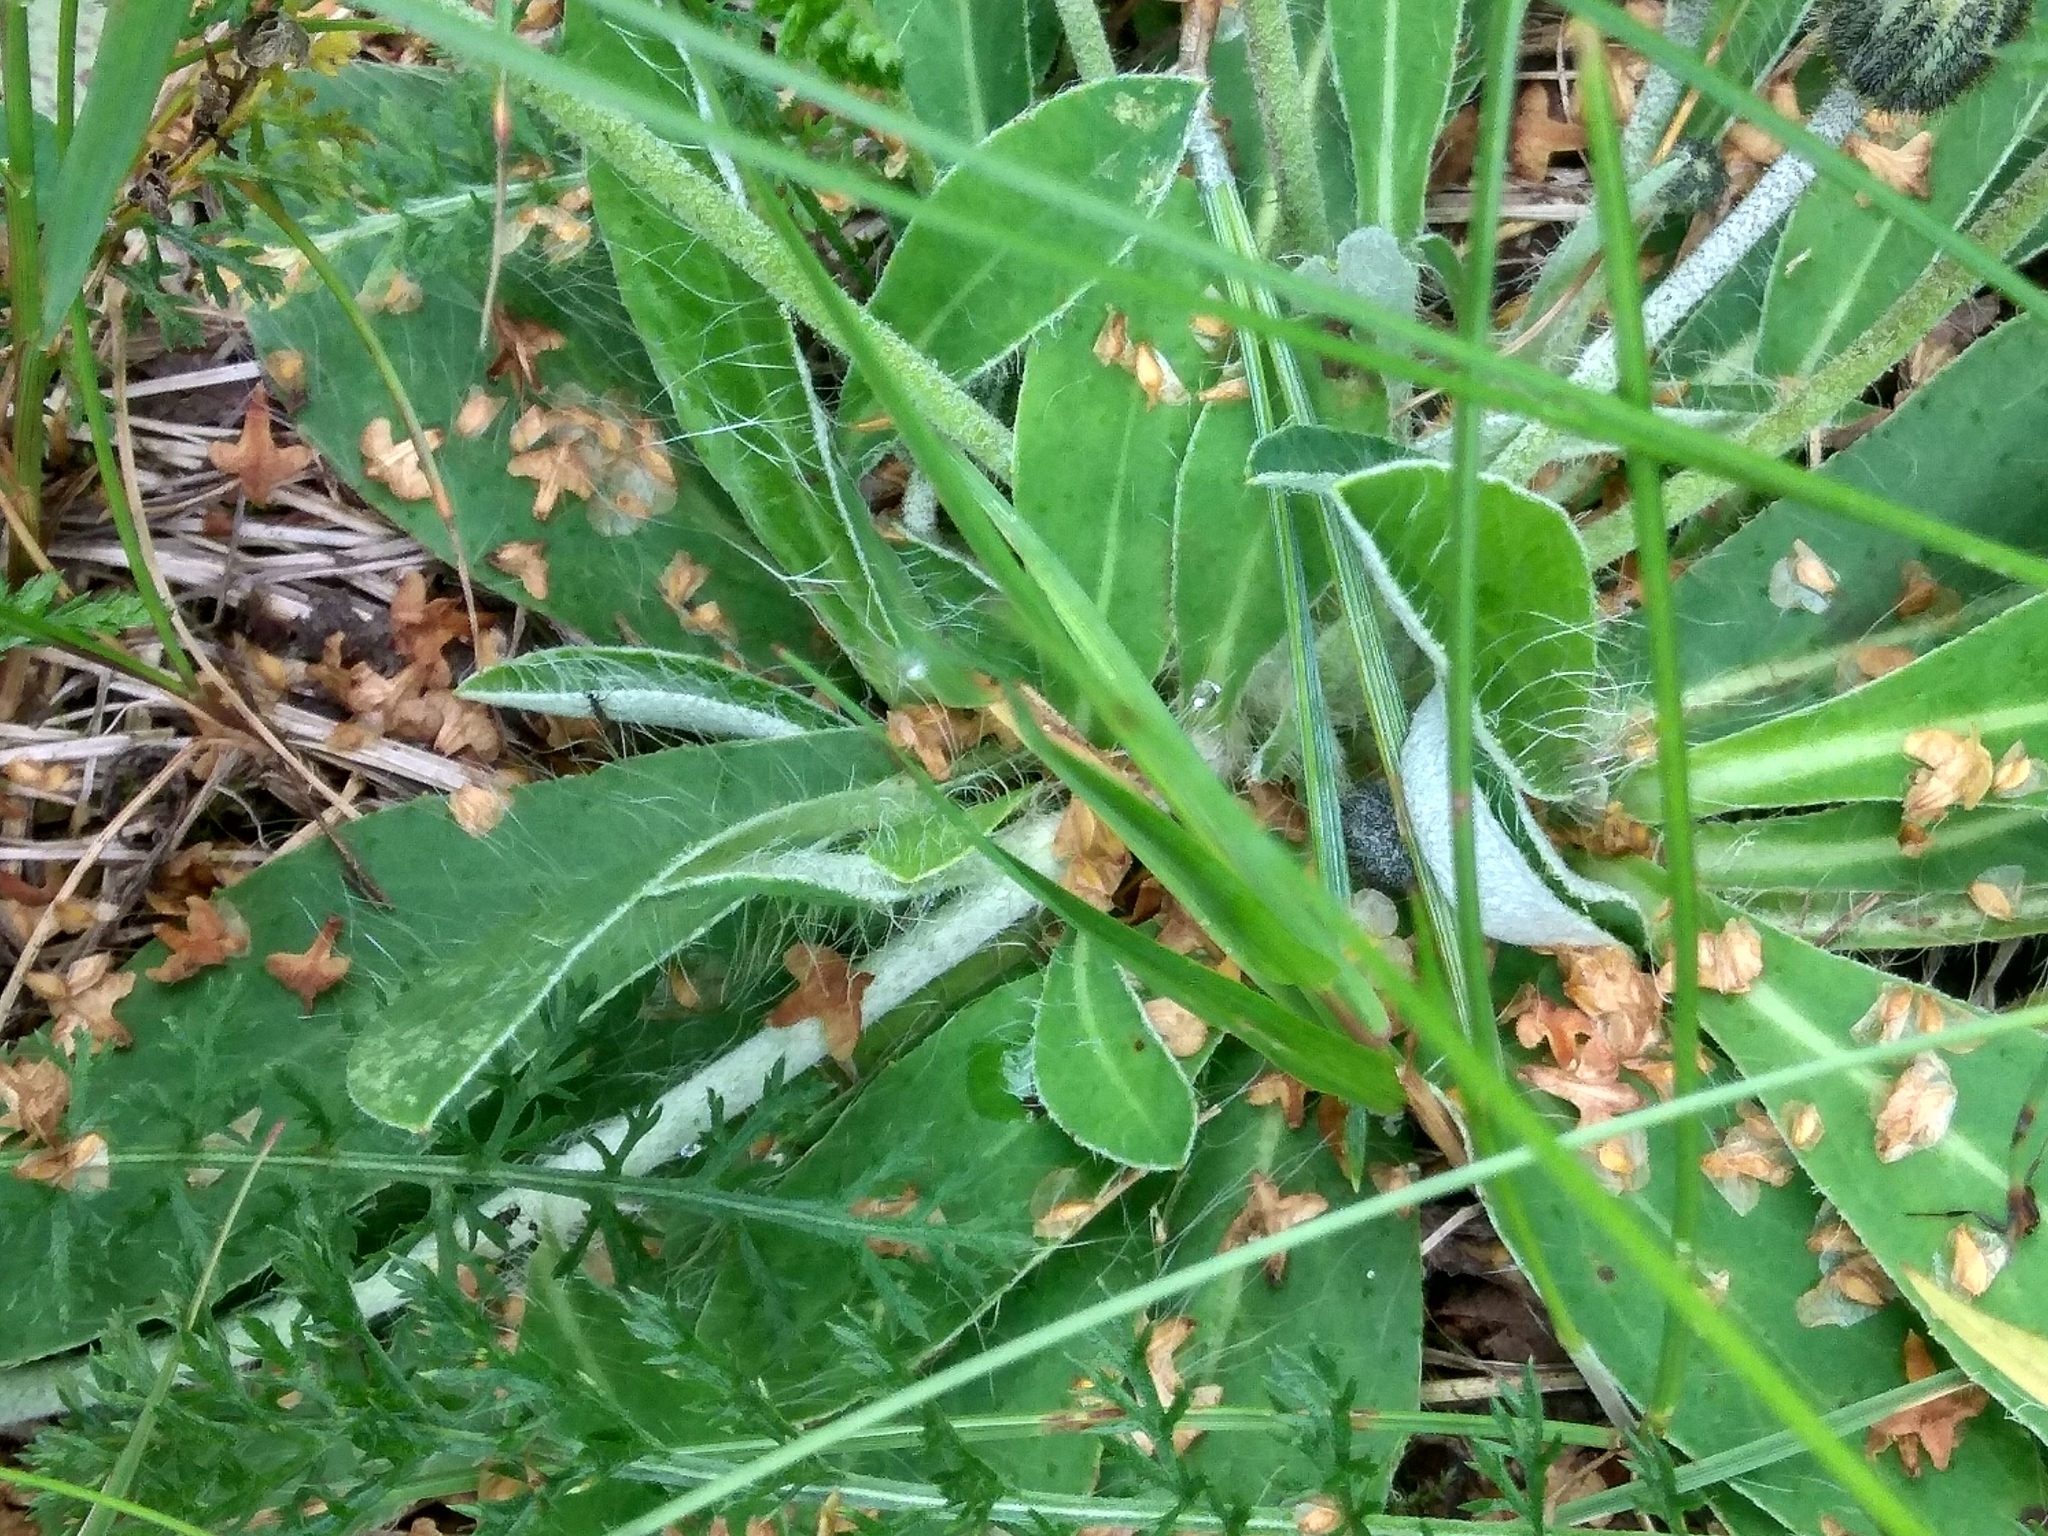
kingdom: Plantae
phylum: Tracheophyta
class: Magnoliopsida
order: Asterales
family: Asteraceae
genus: Pilosella
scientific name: Pilosella officinarum
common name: Mouse-ear hawkweed
